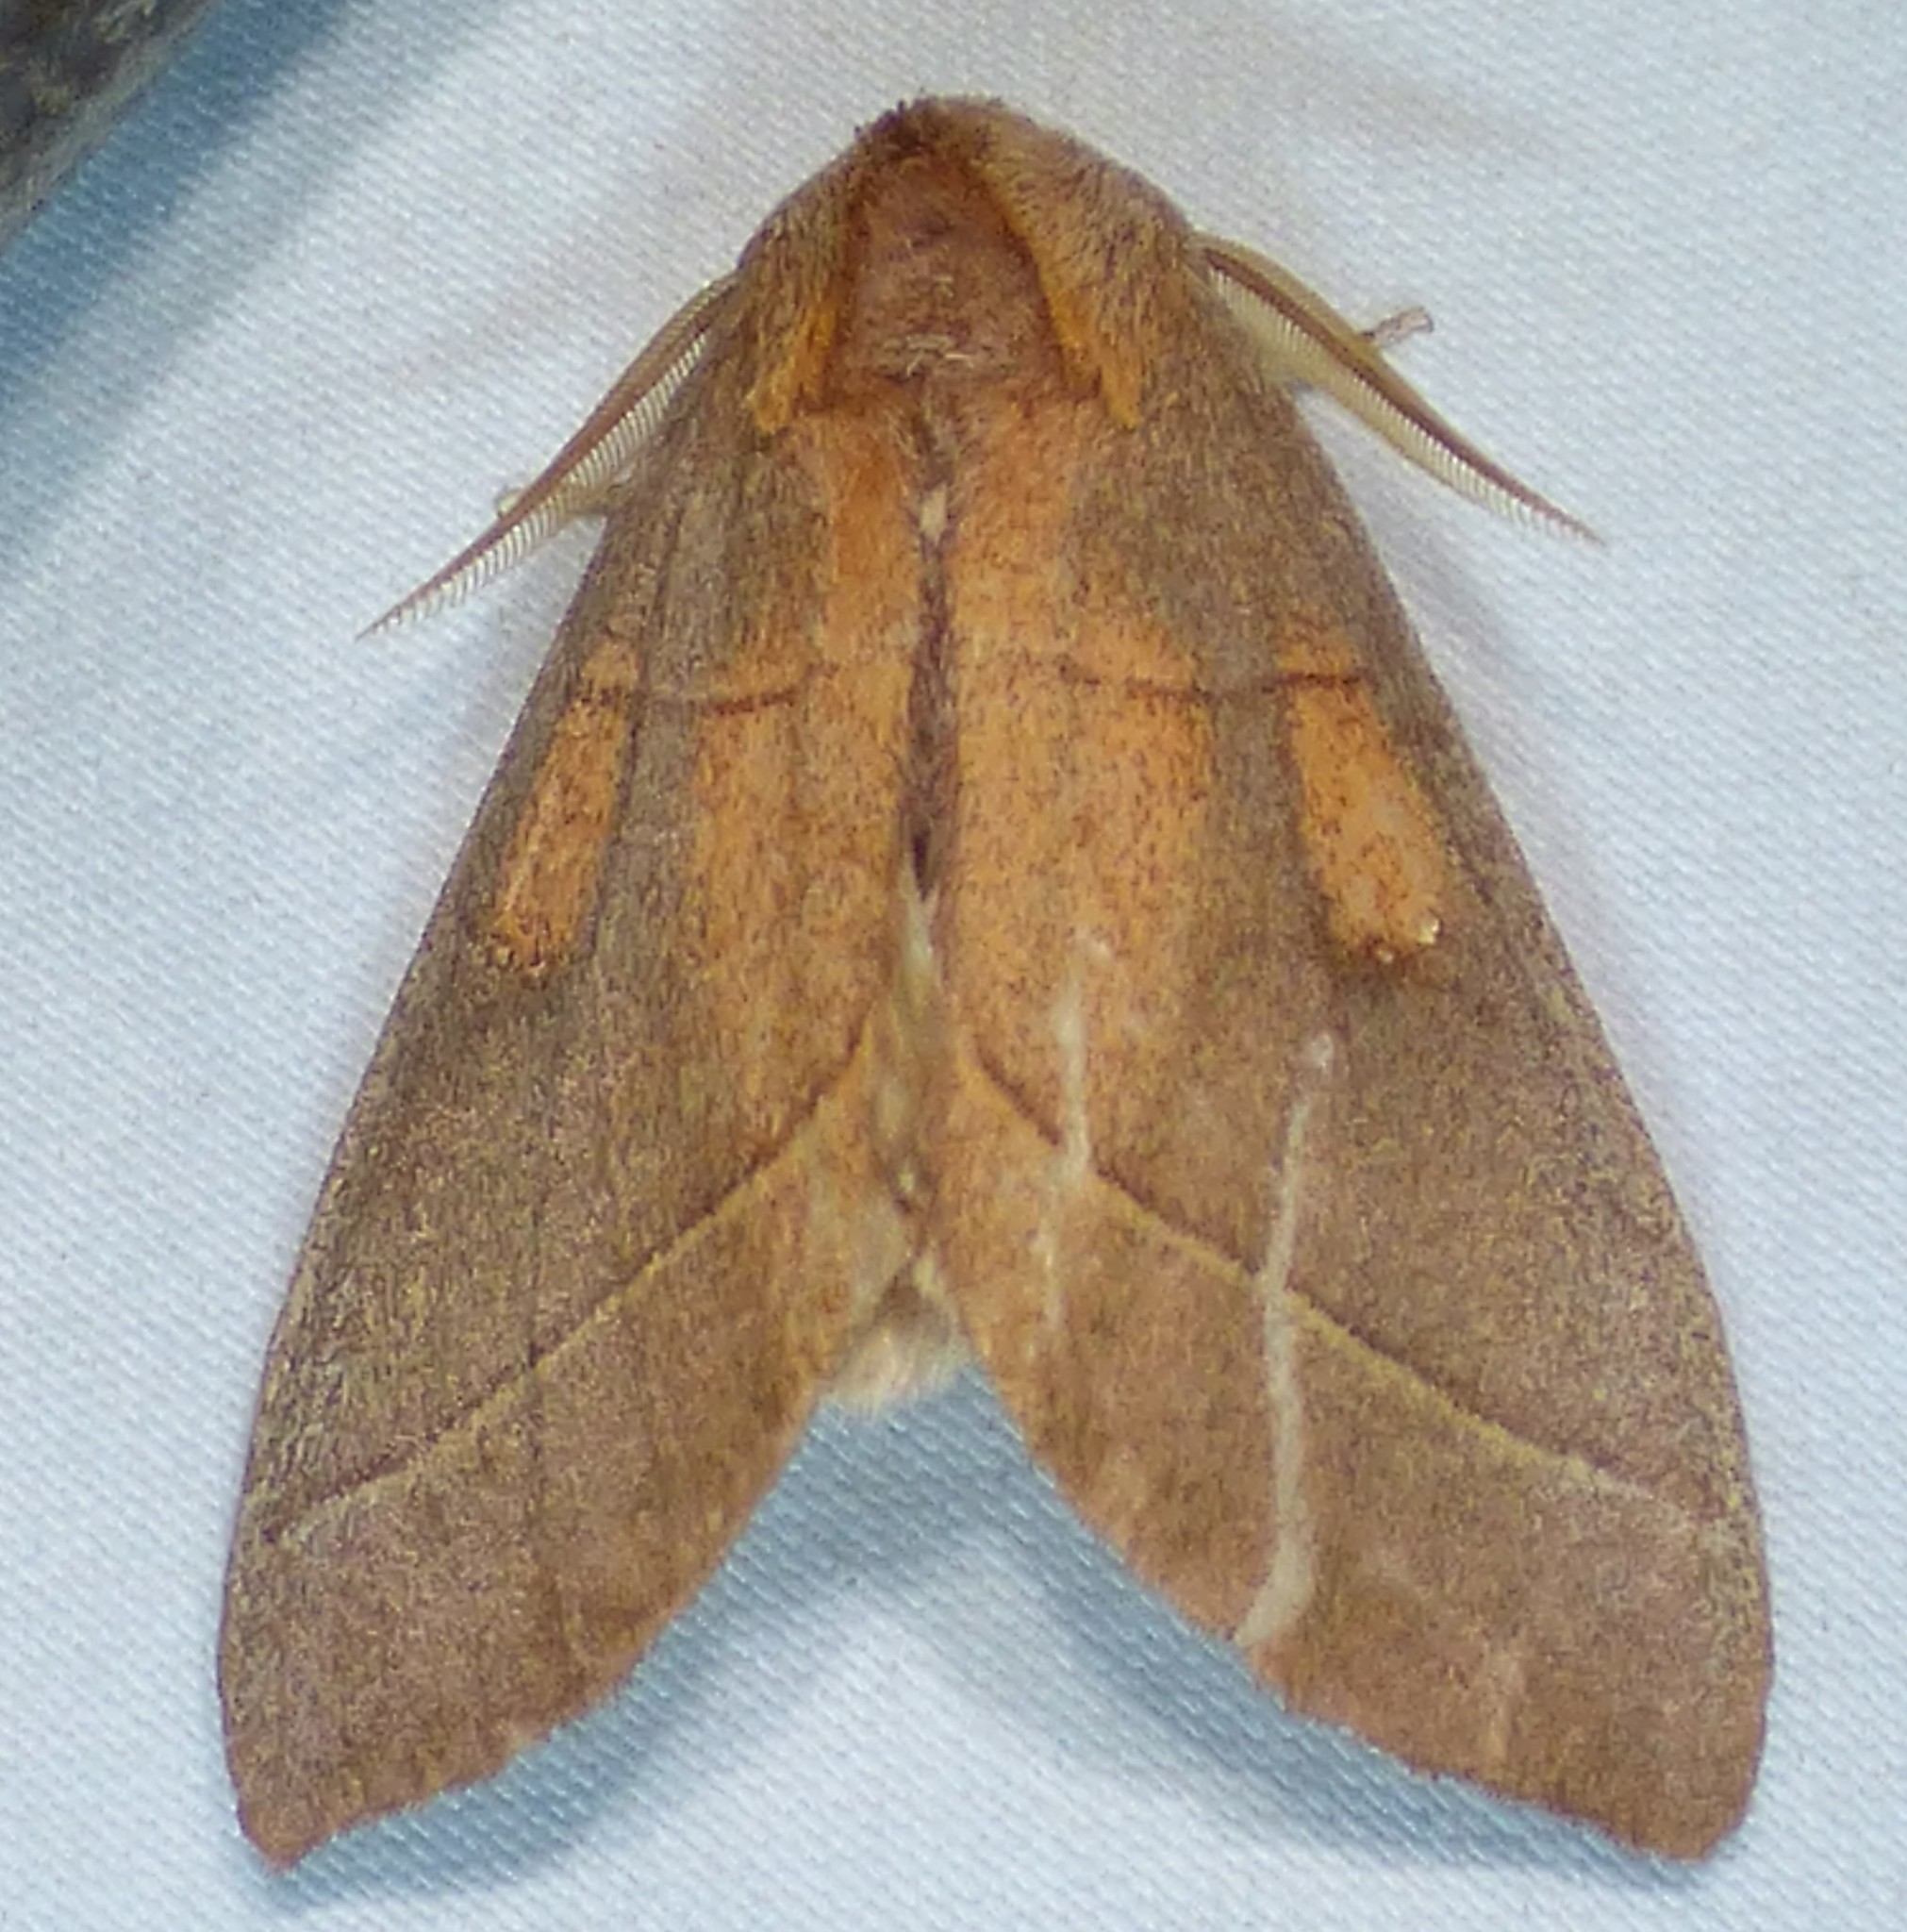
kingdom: Animalia
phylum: Arthropoda
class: Insecta
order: Lepidoptera
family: Notodontidae
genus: Nadata
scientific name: Nadata gibbosa
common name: White-dotted prominent
